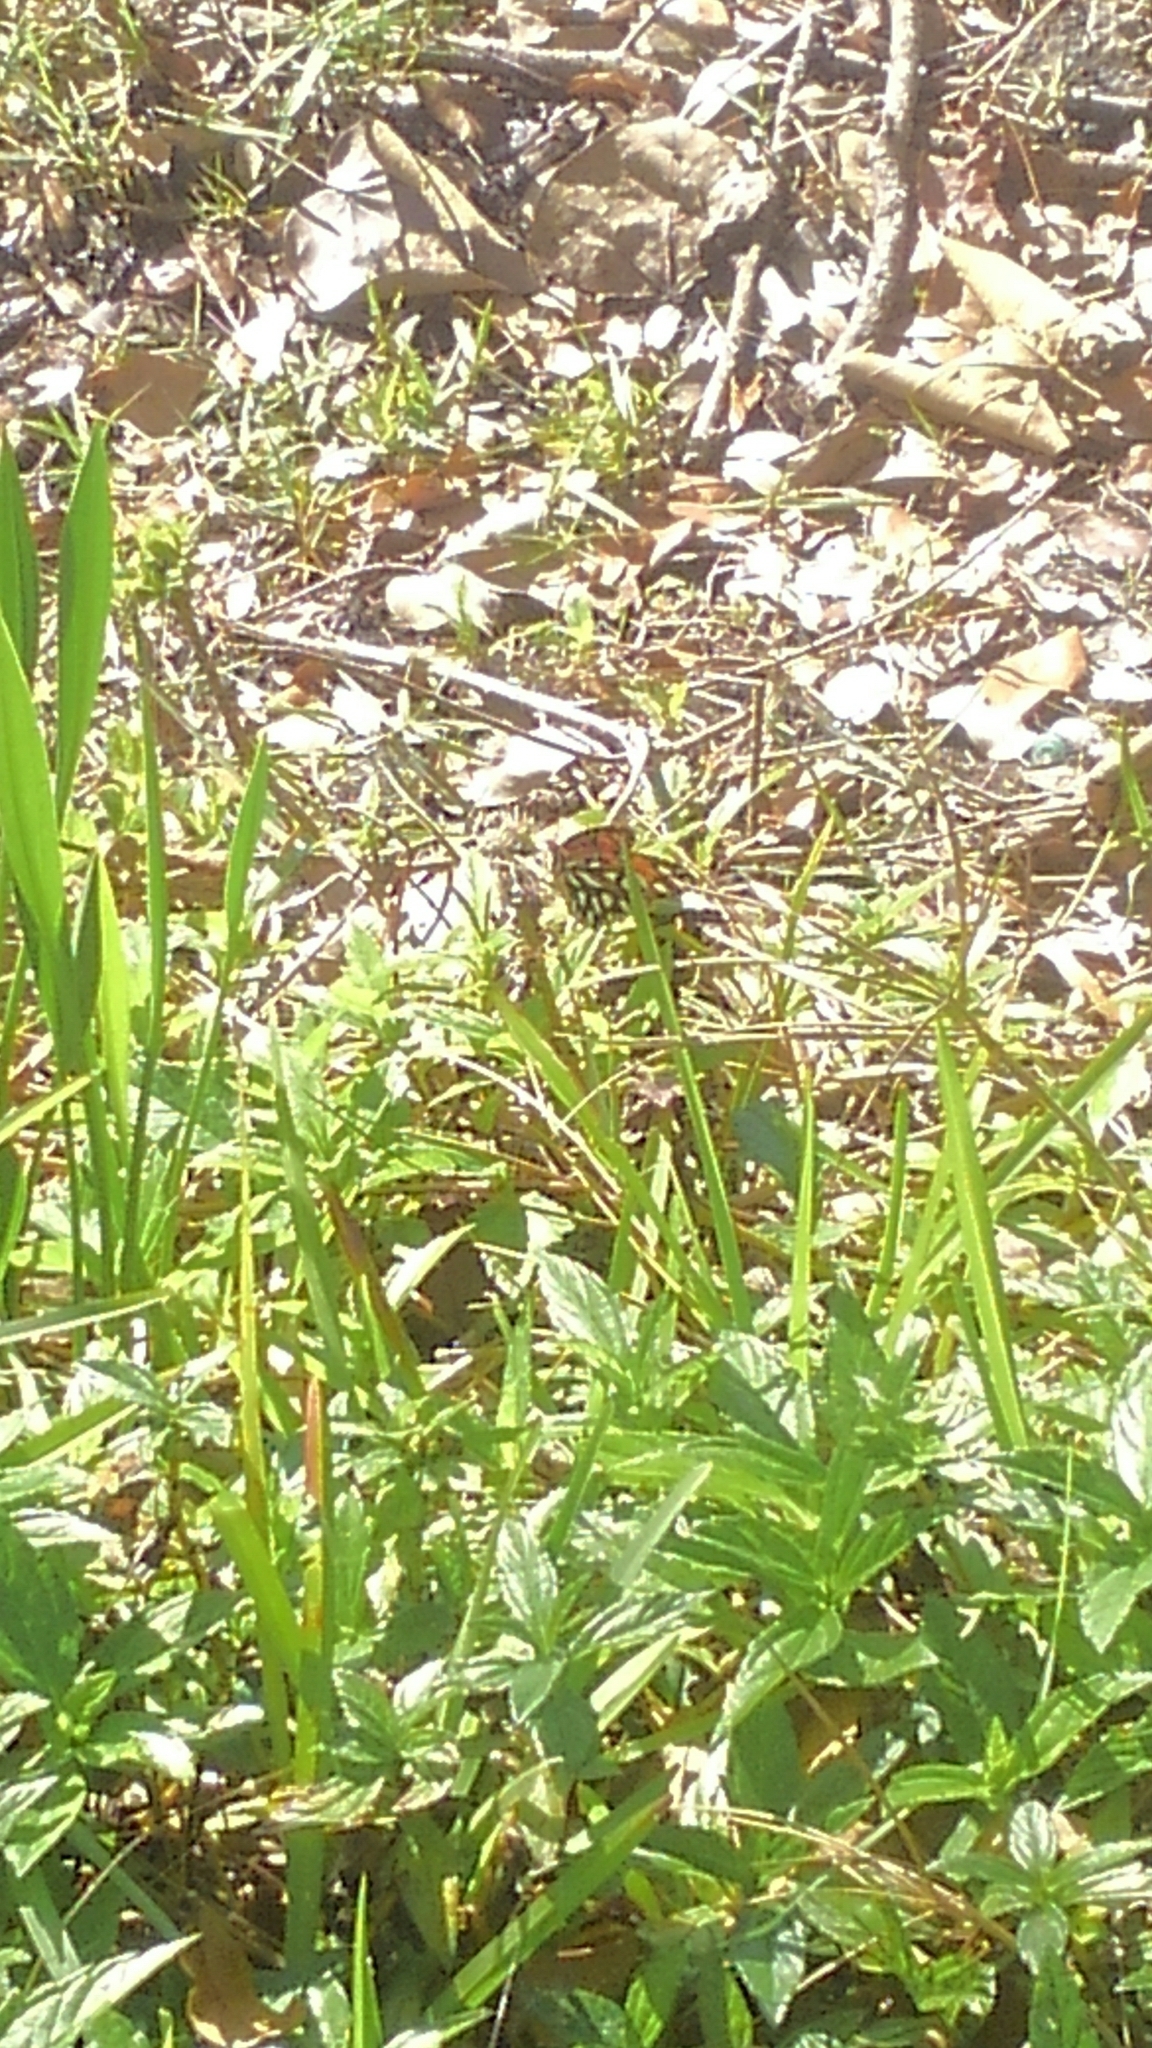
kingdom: Animalia
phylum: Arthropoda
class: Insecta
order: Lepidoptera
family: Nymphalidae
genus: Dione
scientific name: Dione vanillae
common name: Gulf fritillary
